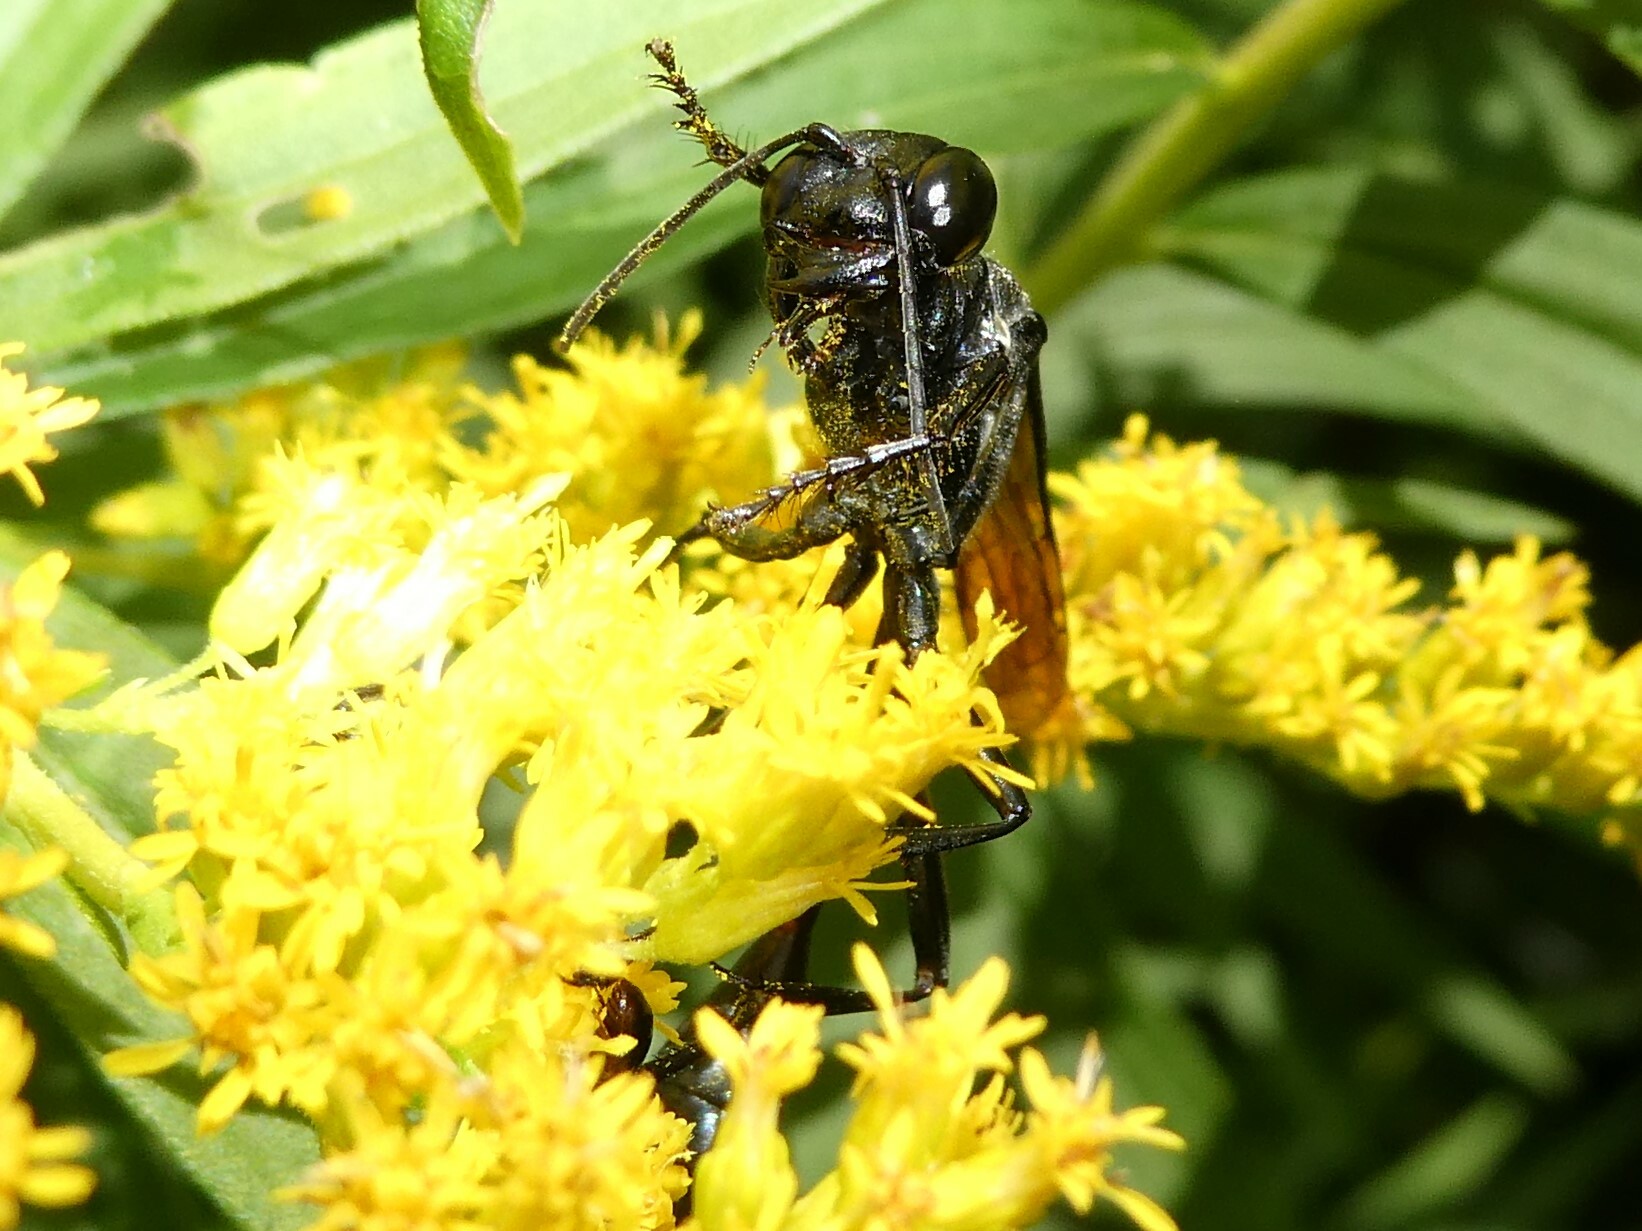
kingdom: Animalia
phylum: Arthropoda
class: Insecta
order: Hymenoptera
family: Sphecidae
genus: Eremnophila
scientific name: Eremnophila aureonotata
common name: Gold-marked thread-waisted wasp
